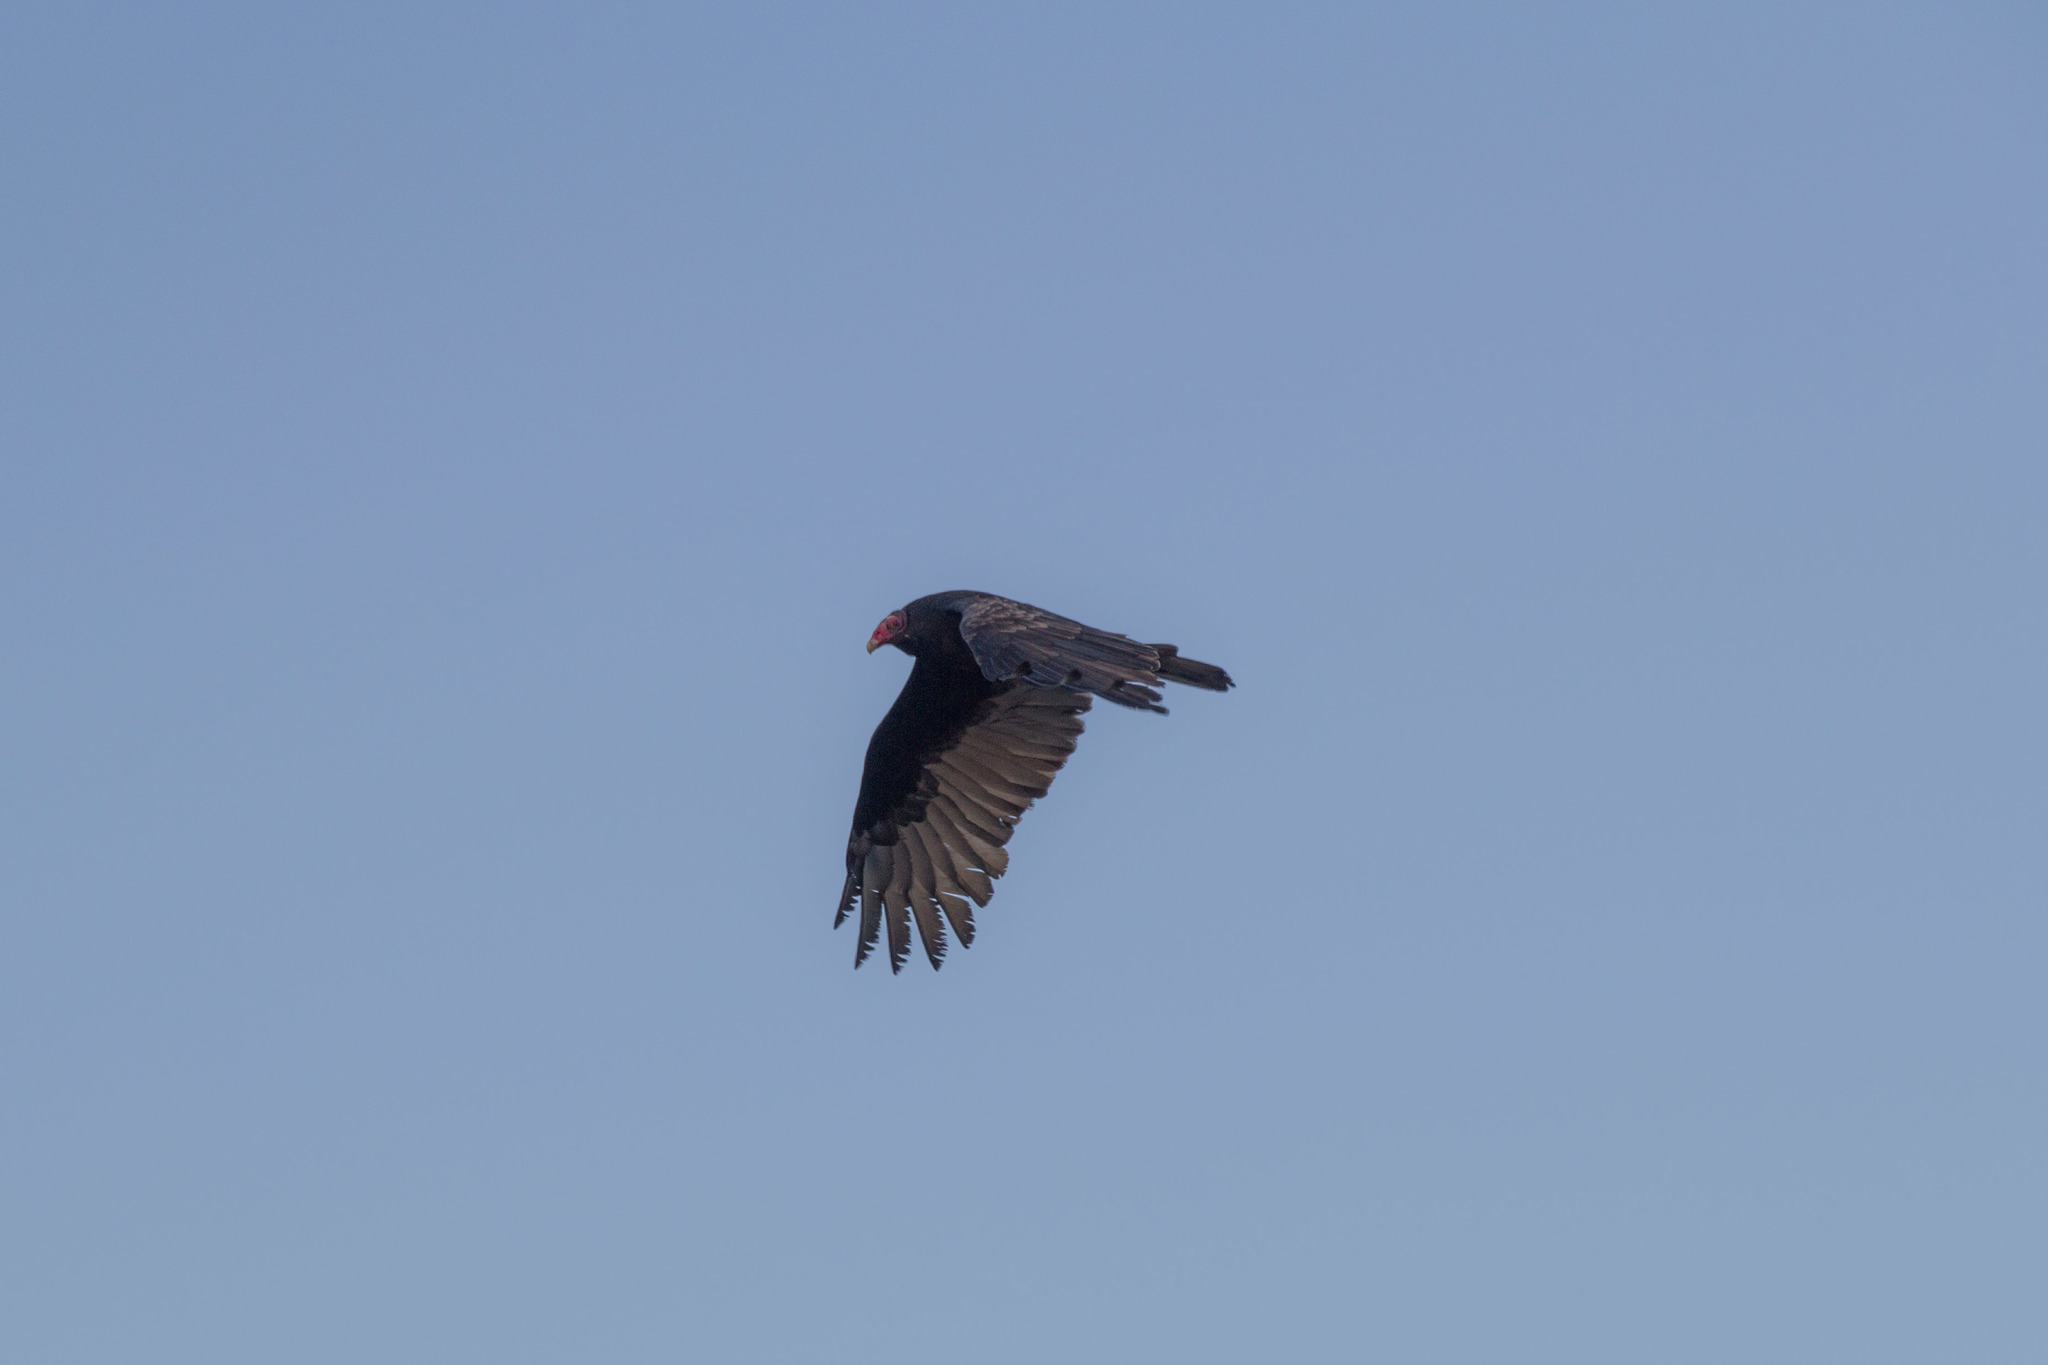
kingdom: Animalia
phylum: Chordata
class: Aves
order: Accipitriformes
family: Cathartidae
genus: Cathartes
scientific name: Cathartes aura
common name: Turkey vulture
